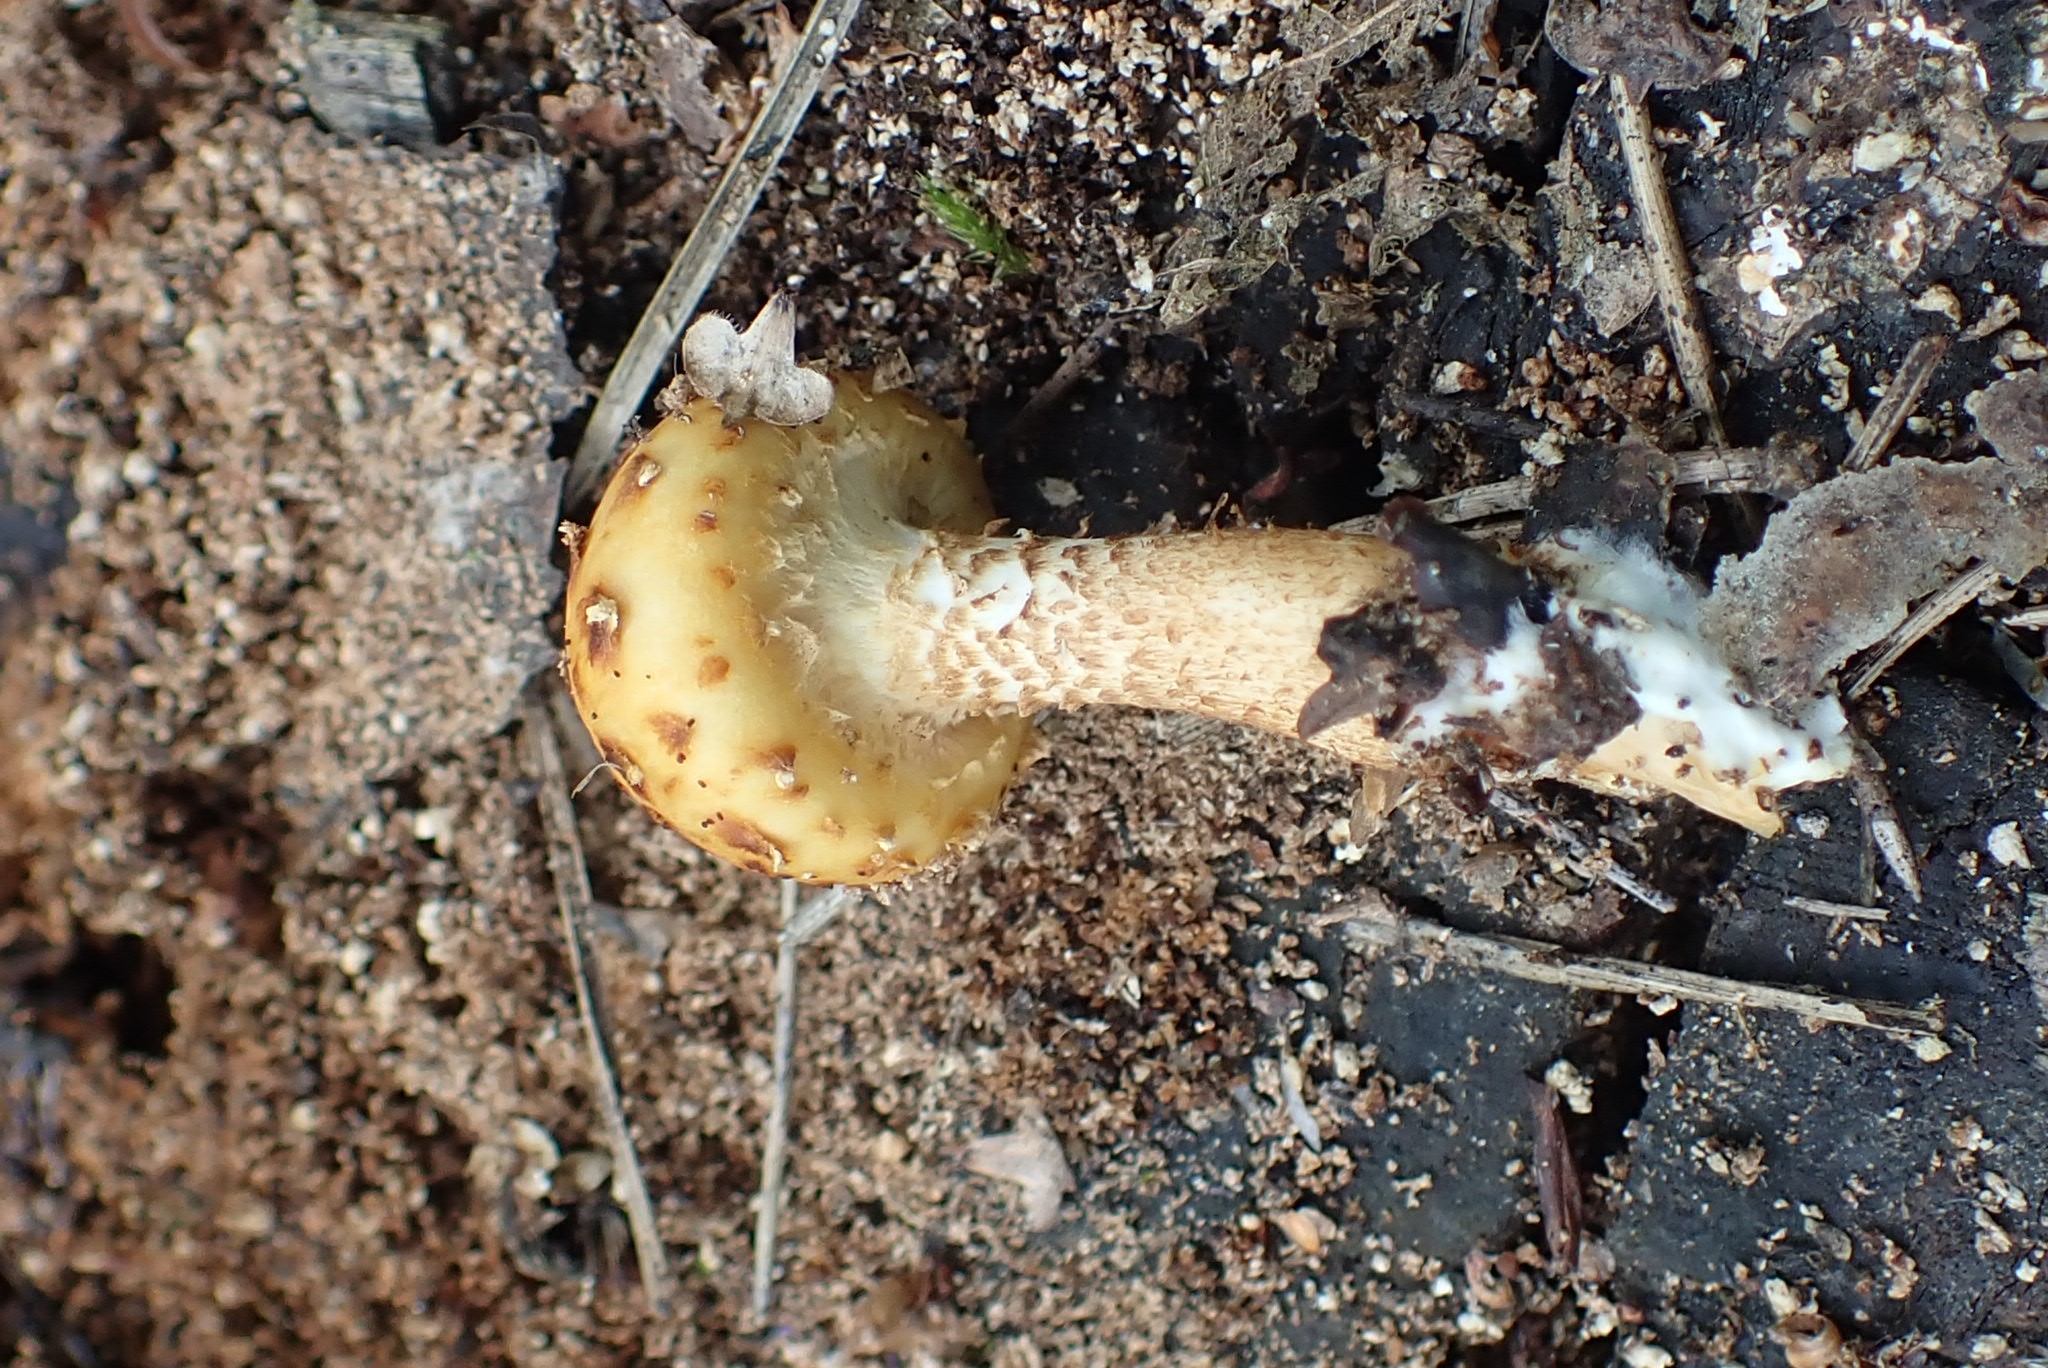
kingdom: Fungi
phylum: Basidiomycota
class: Agaricomycetes
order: Agaricales
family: Strophariaceae
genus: Pholiota
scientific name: Pholiota aurivella
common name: Golden scalycap
